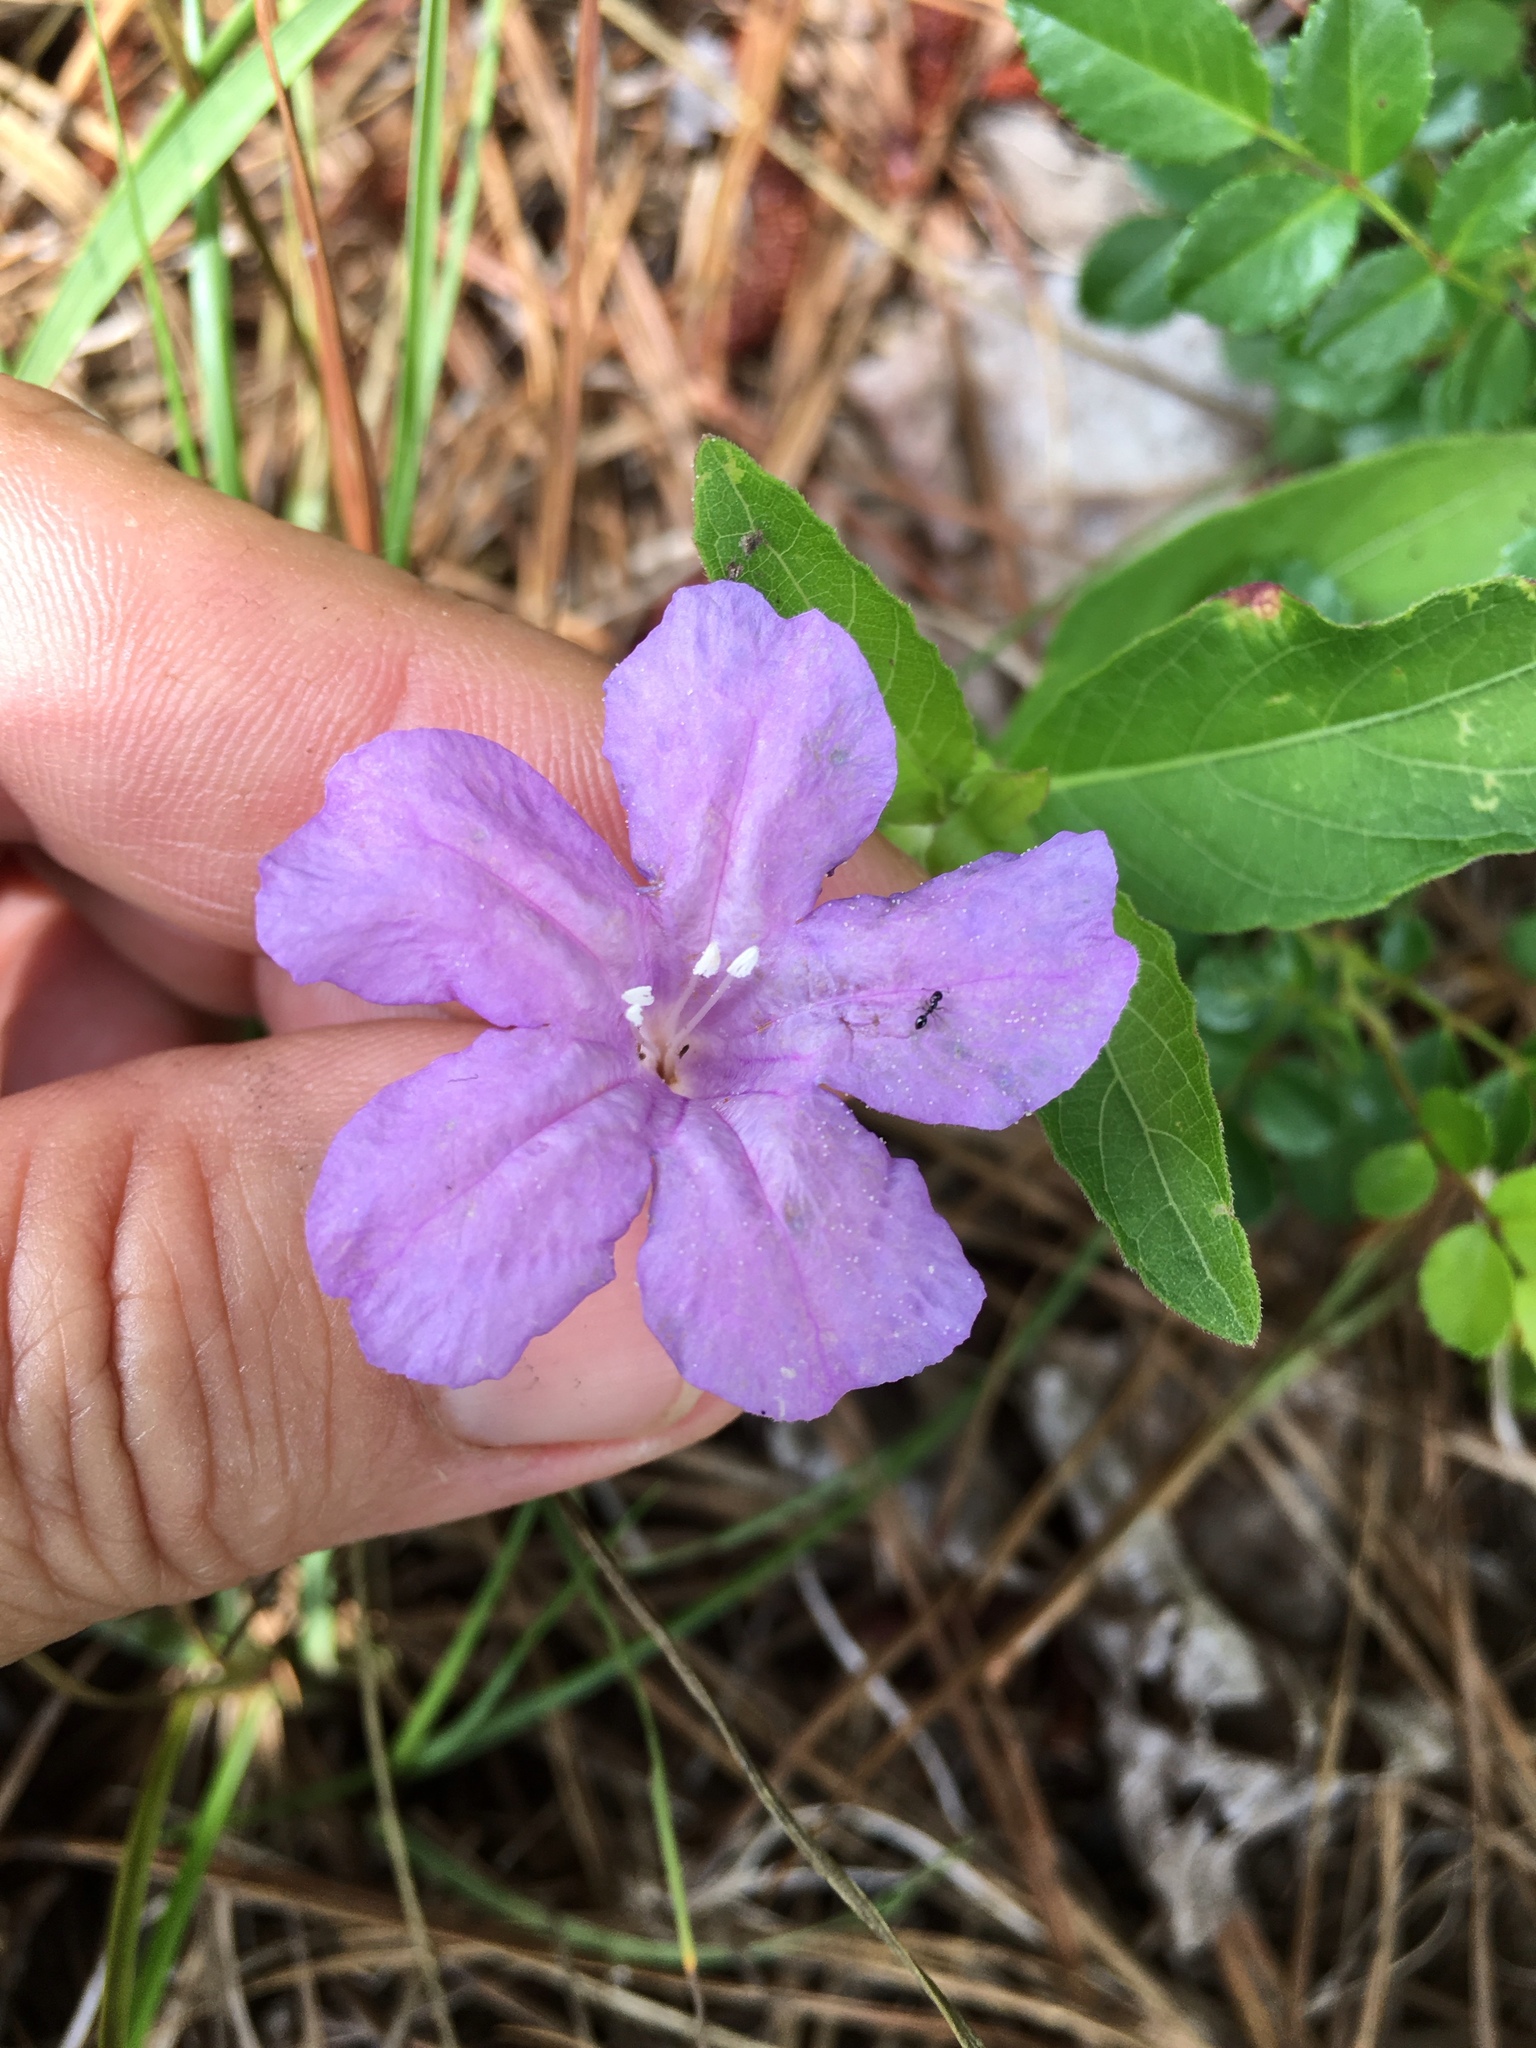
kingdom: Plantae
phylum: Tracheophyta
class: Magnoliopsida
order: Lamiales
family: Acanthaceae
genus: Ruellia
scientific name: Ruellia caroliniensis
